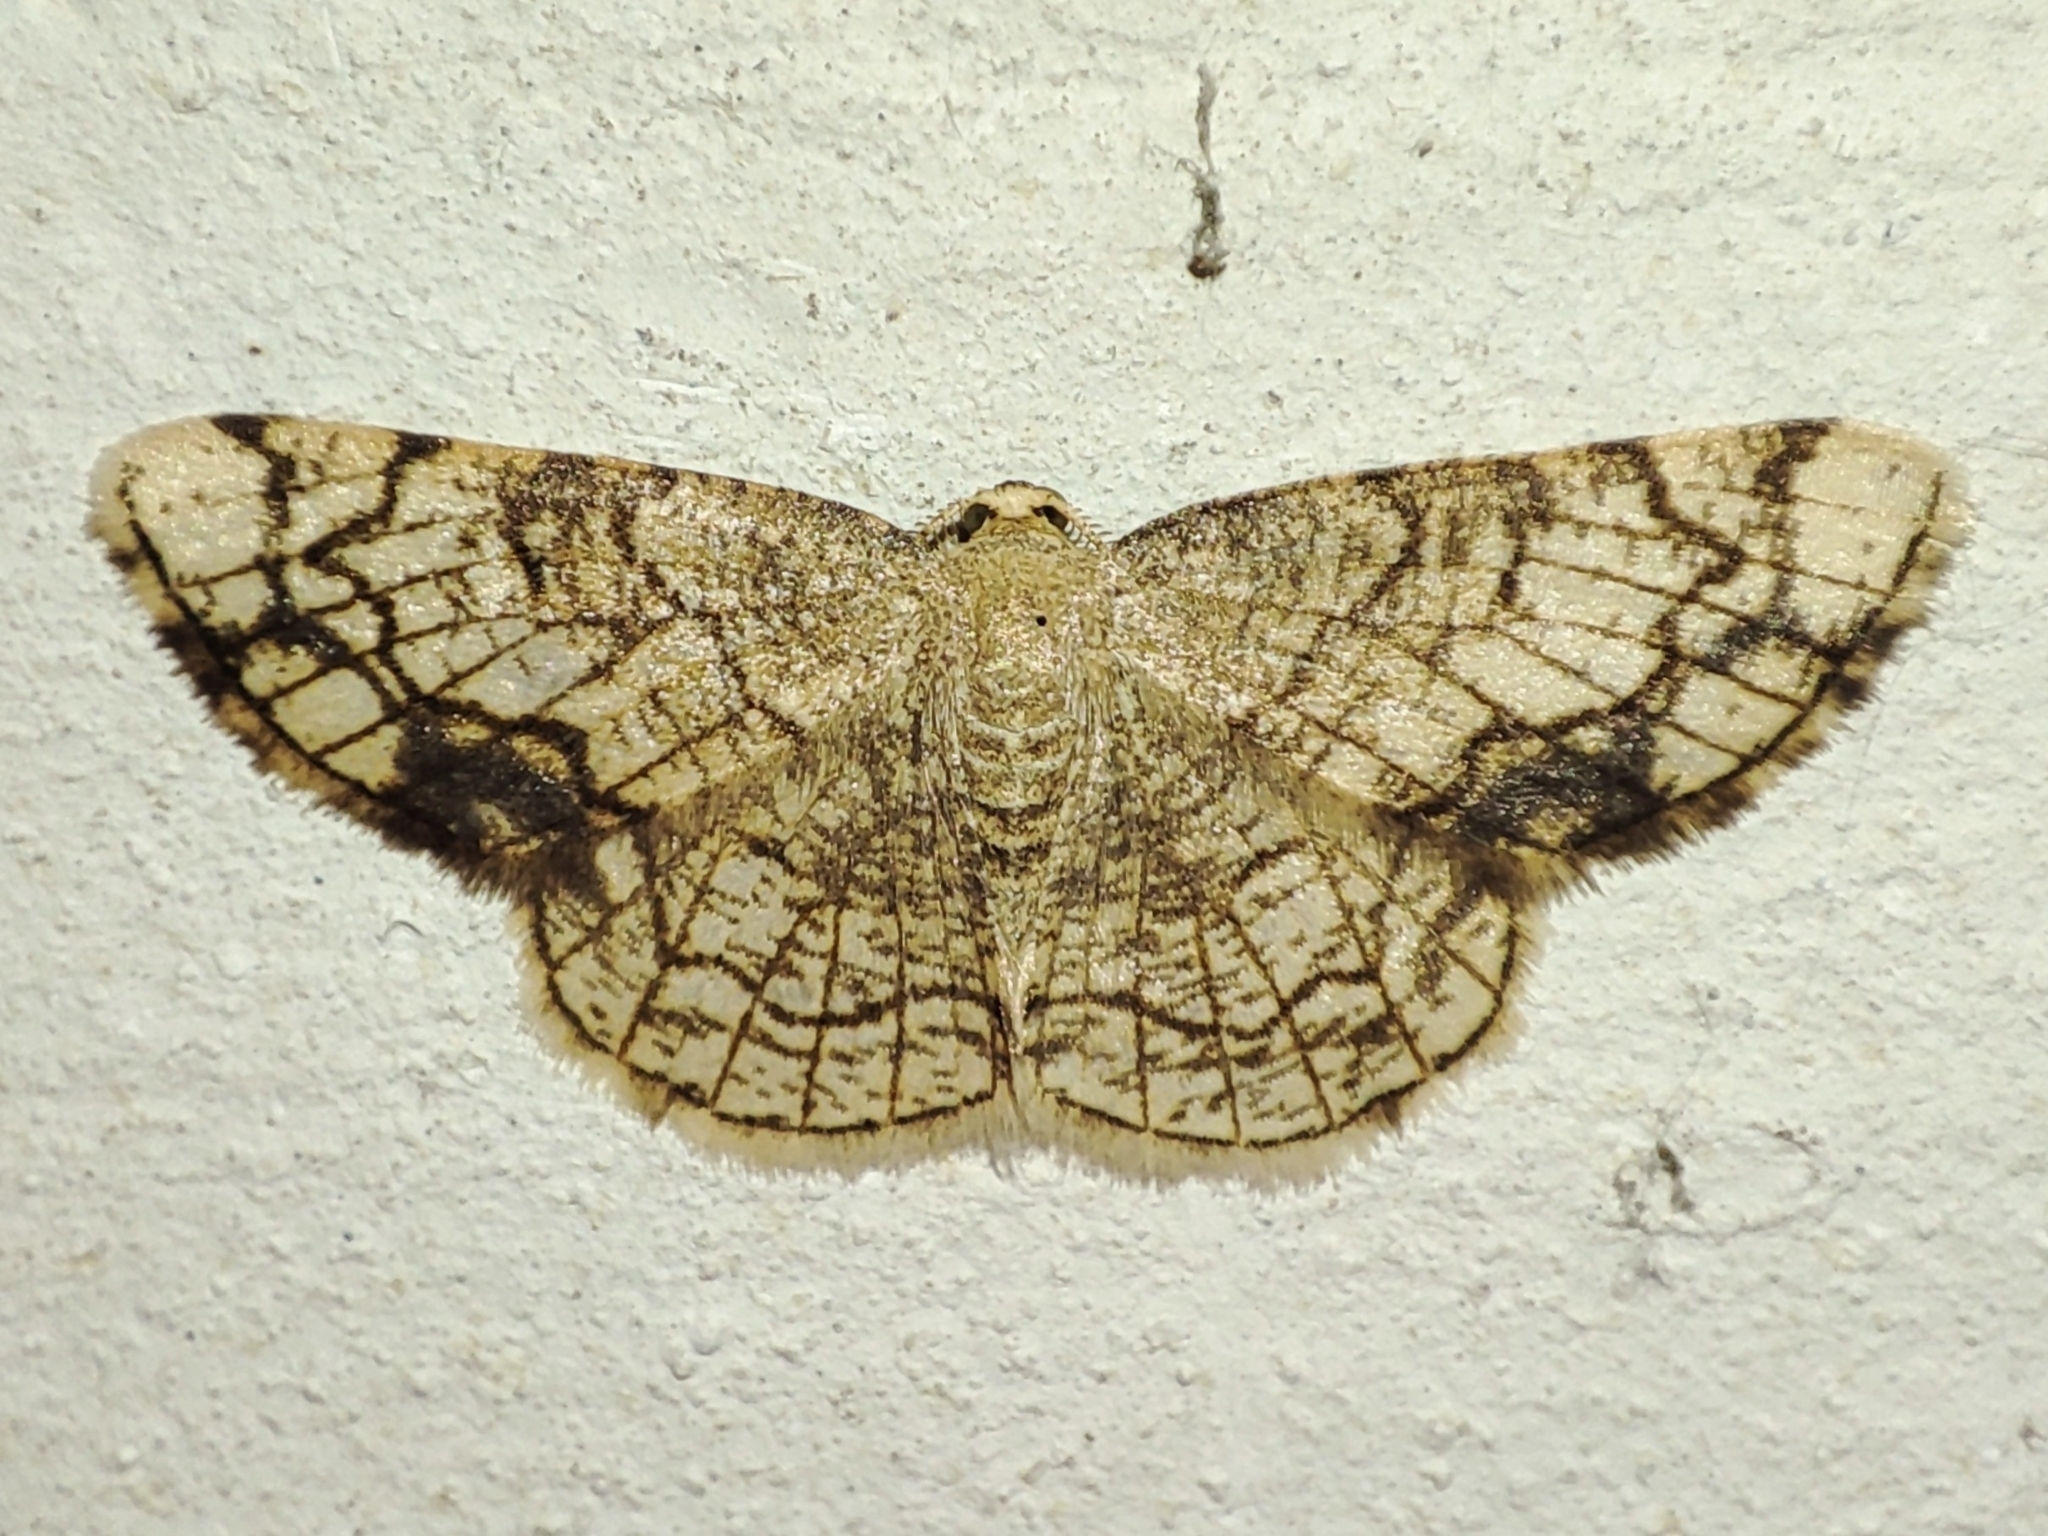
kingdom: Animalia
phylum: Arthropoda
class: Insecta
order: Lepidoptera
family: Geometridae
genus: Stegania
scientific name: Stegania dilectaria
